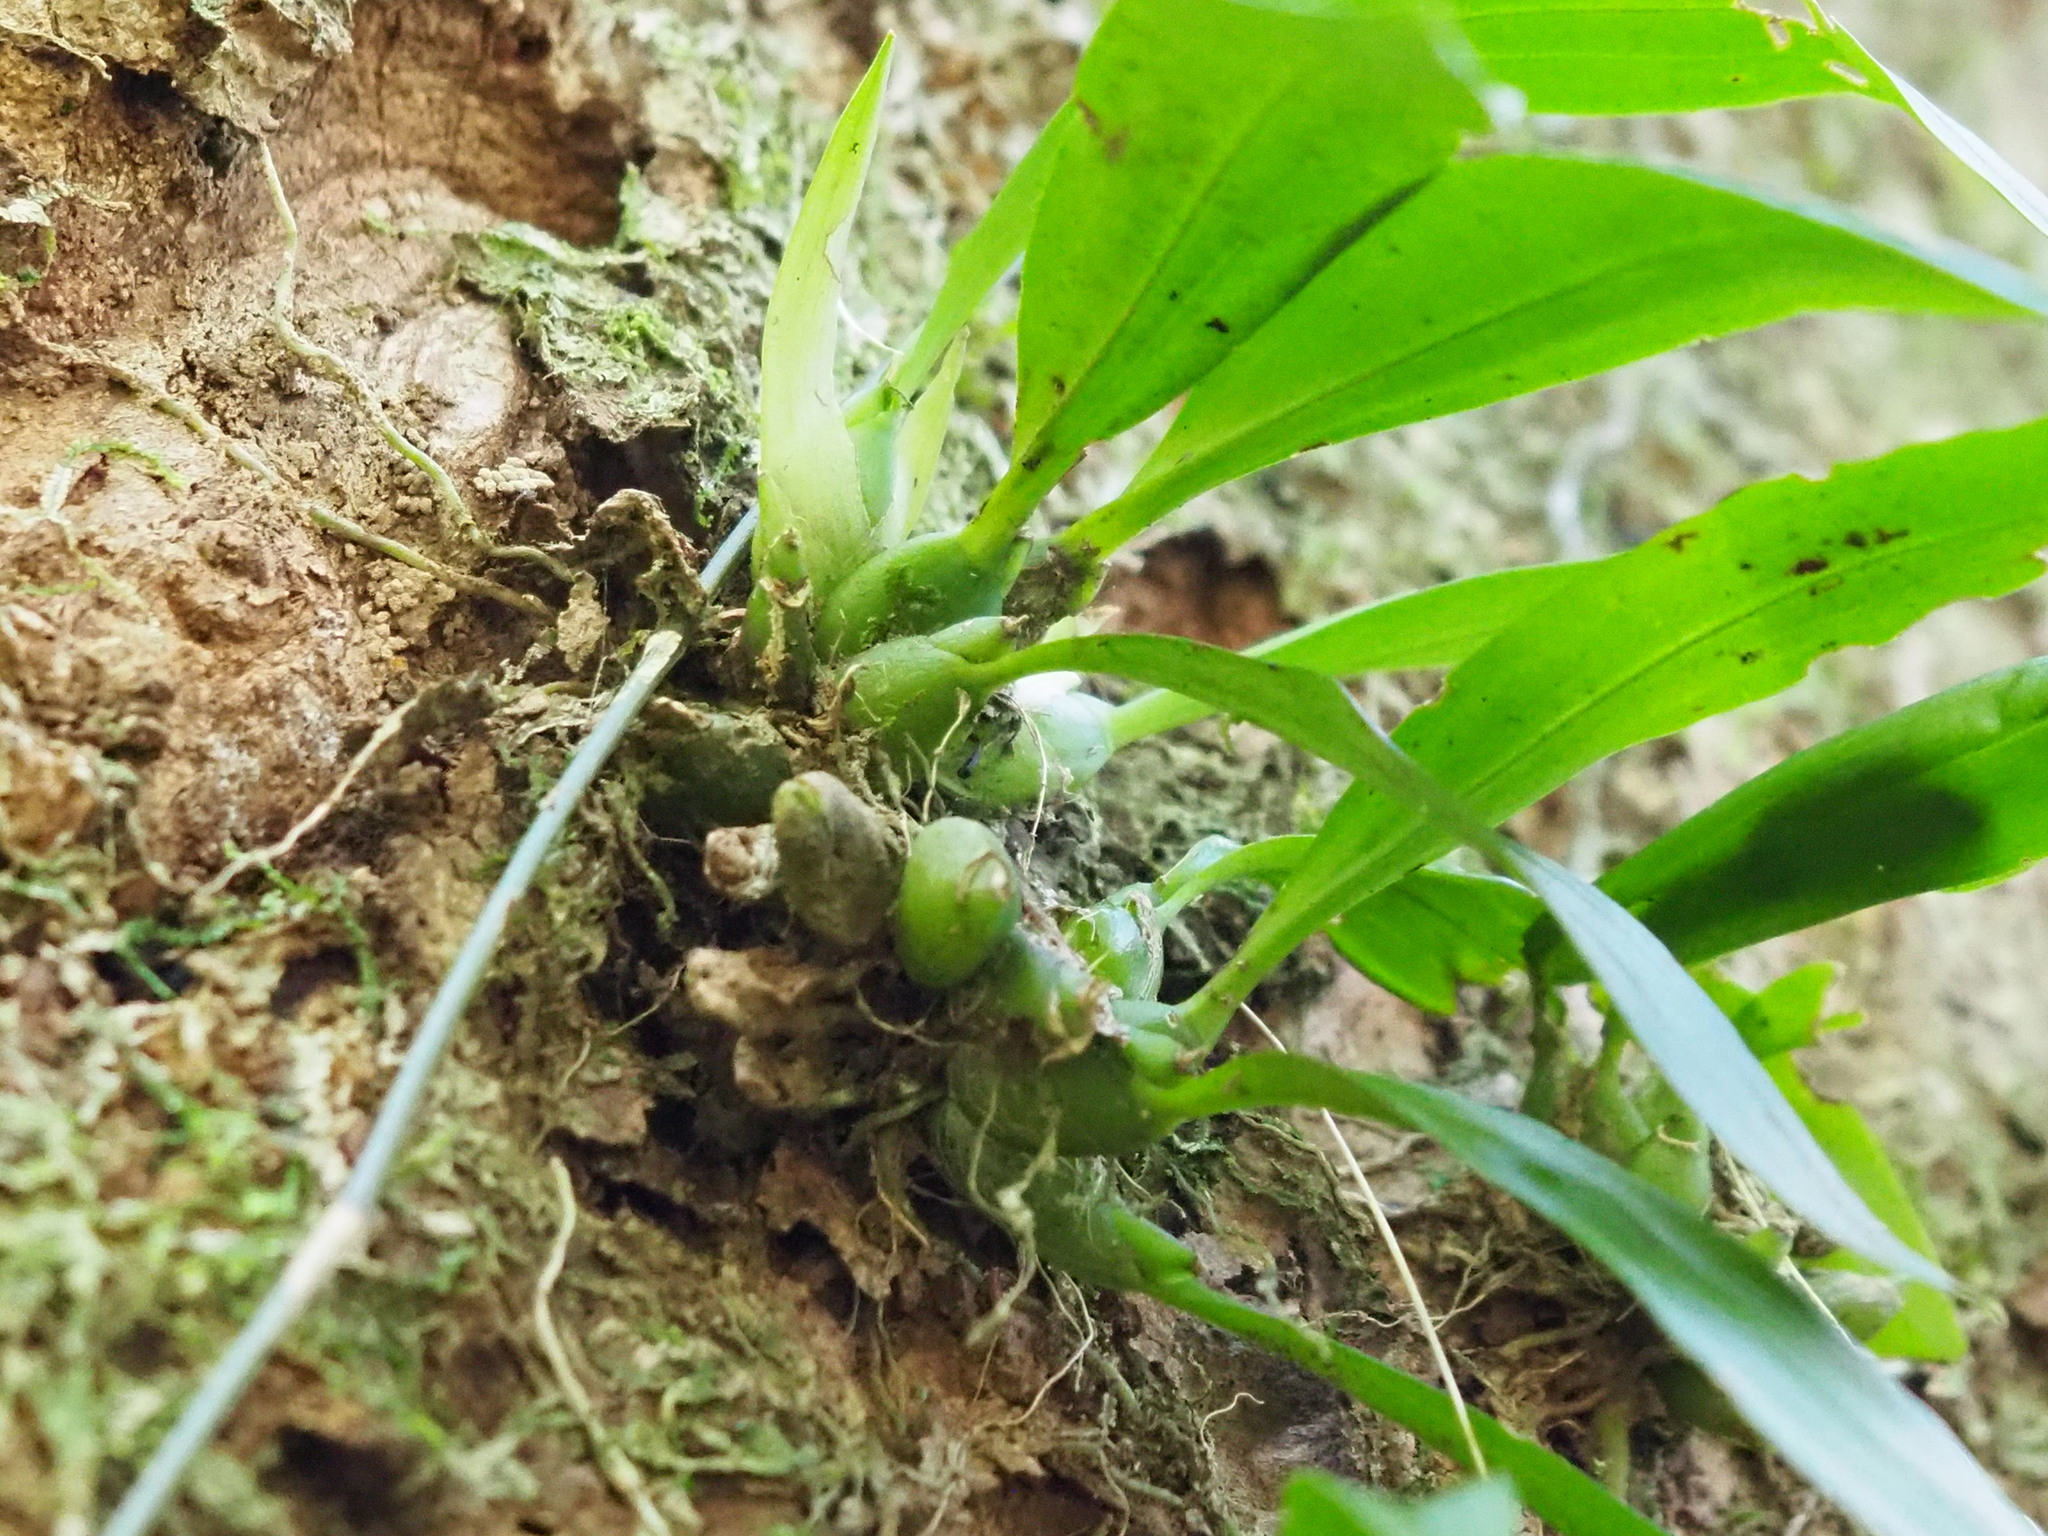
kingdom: Plantae
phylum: Tracheophyta
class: Liliopsida
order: Asparagales
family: Orchidaceae
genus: Liparis
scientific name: Liparis bootanensis
